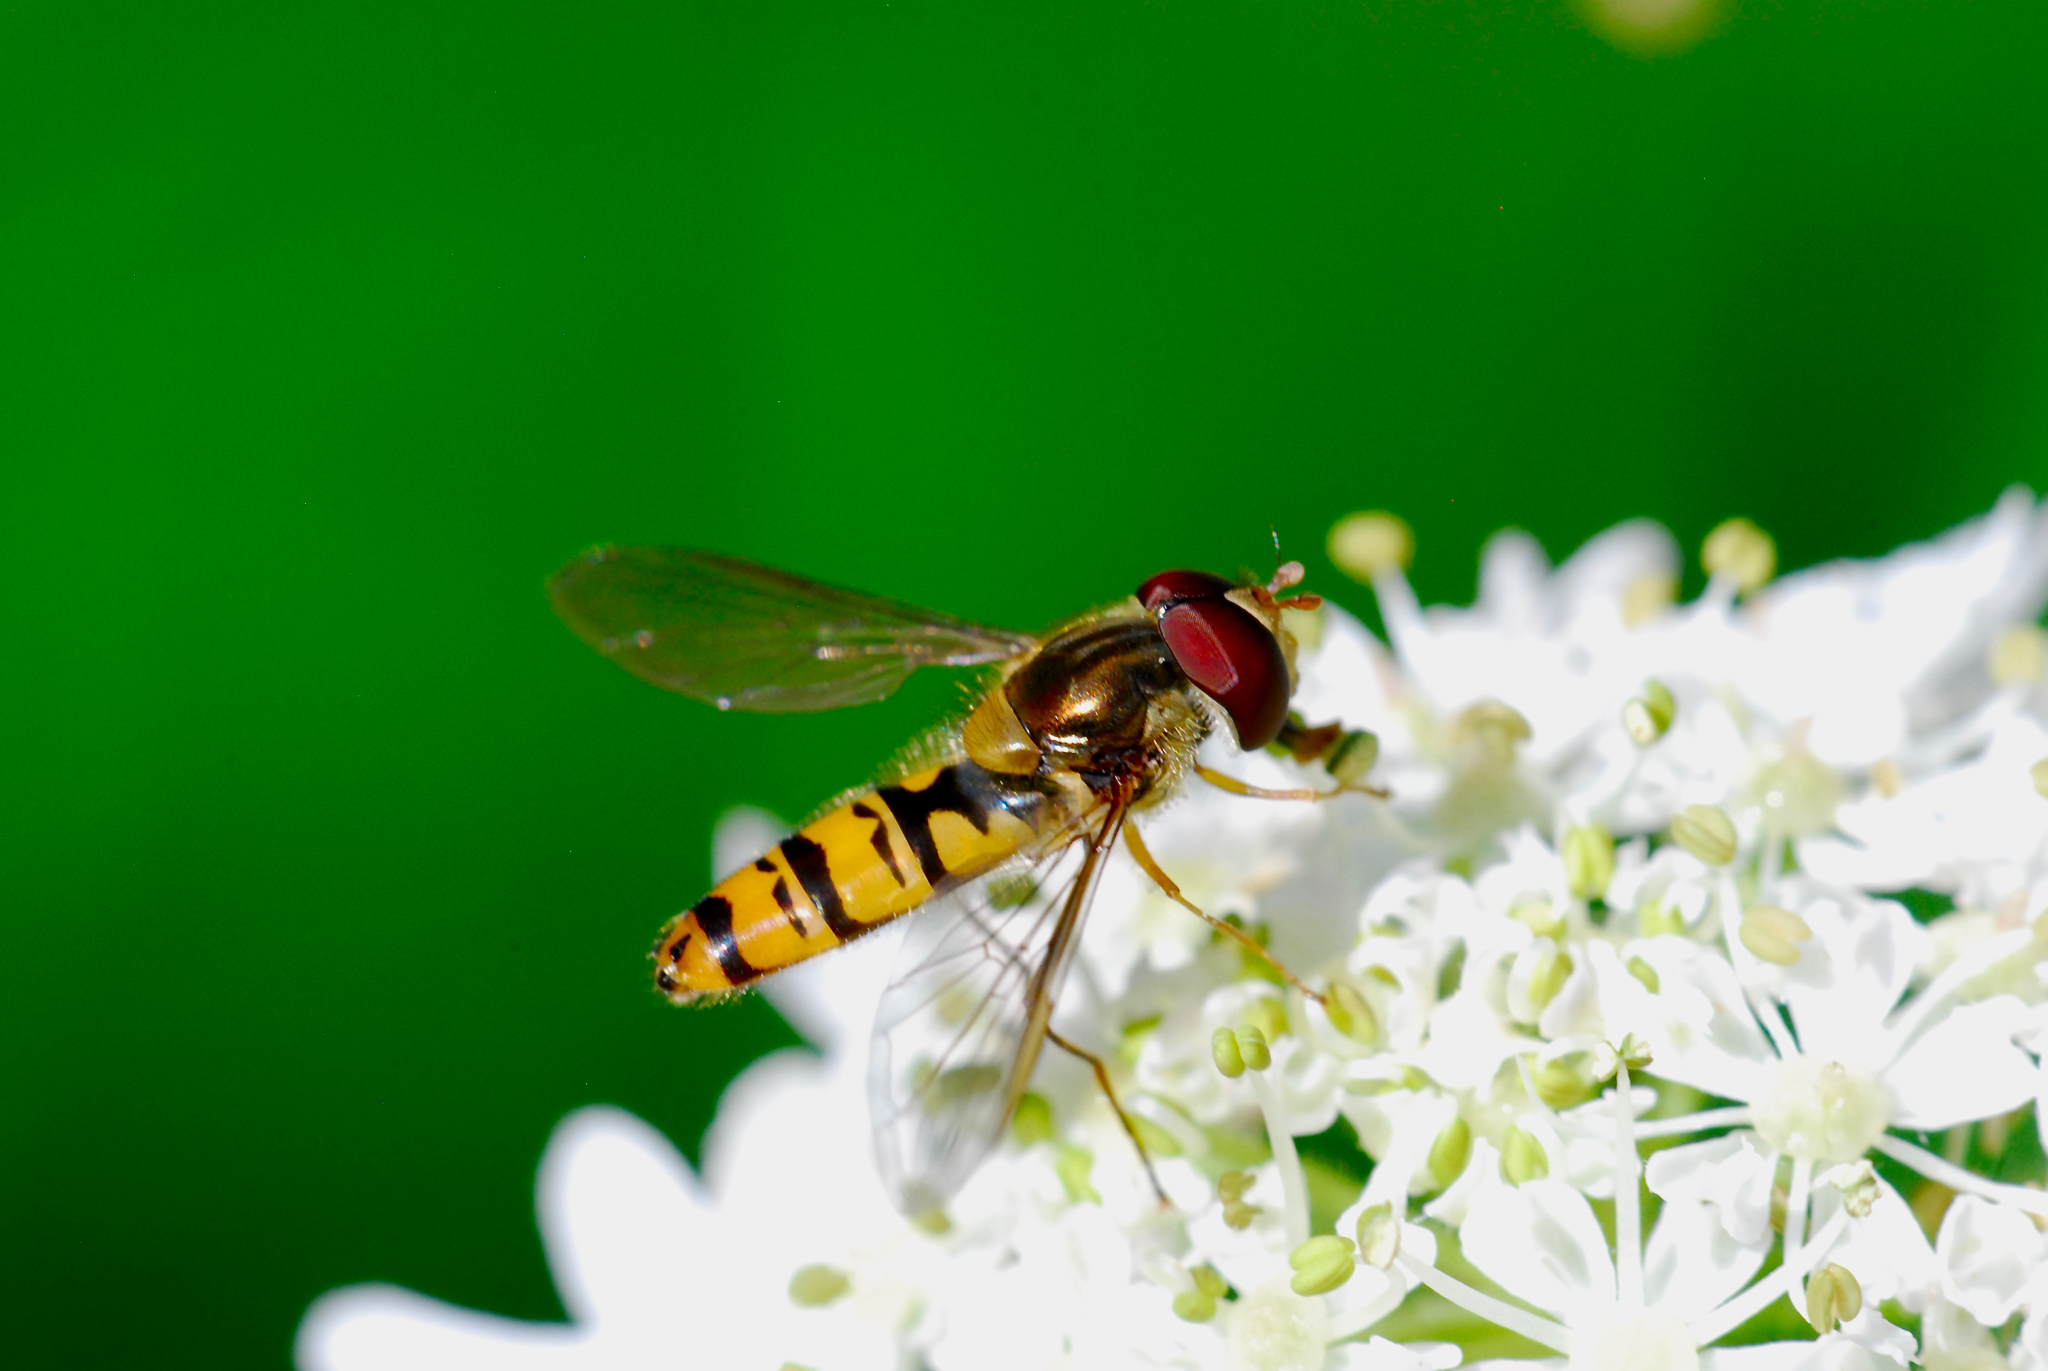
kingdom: Animalia
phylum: Arthropoda
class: Insecta
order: Diptera
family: Syrphidae
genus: Episyrphus
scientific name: Episyrphus balteatus
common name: Marmalade hoverfly
